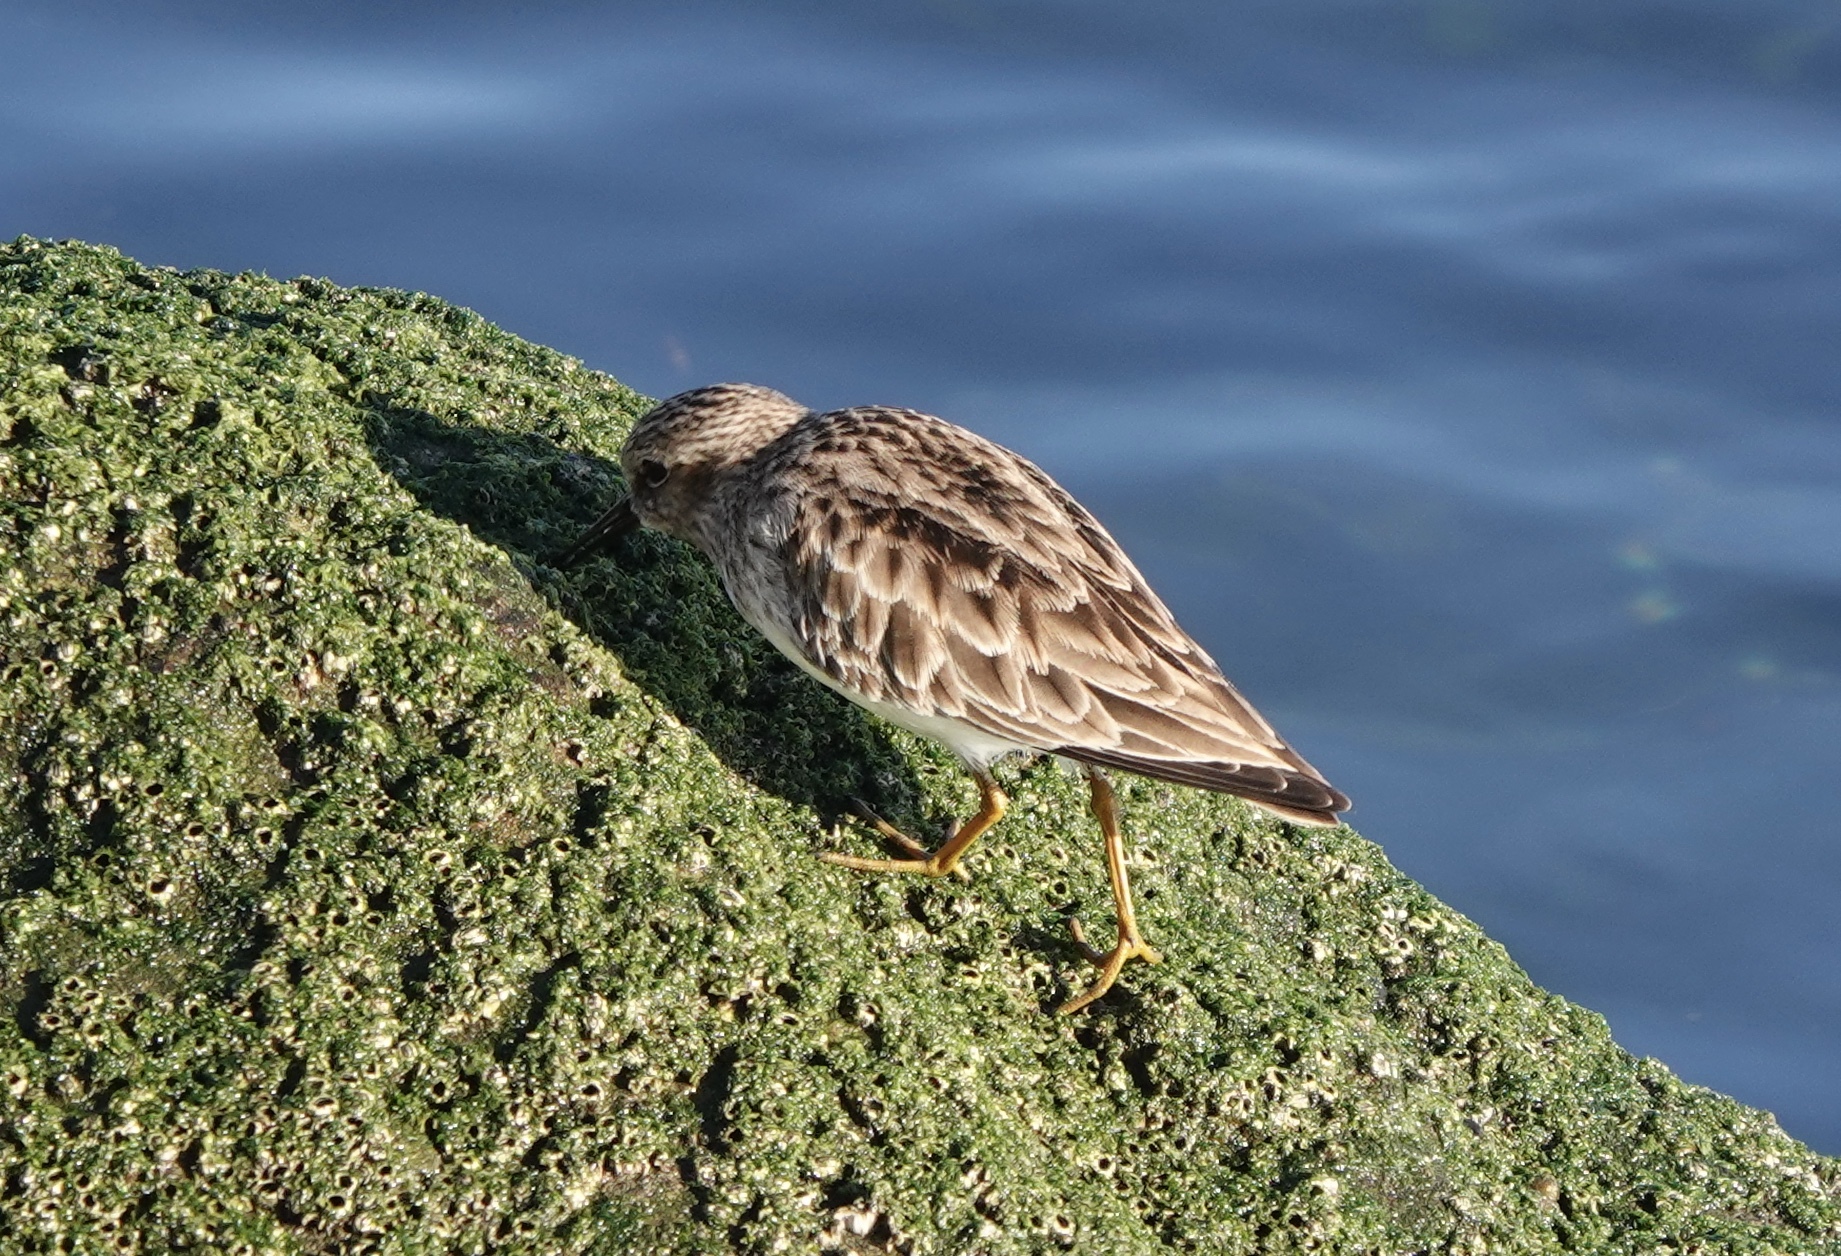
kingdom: Animalia
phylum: Chordata
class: Aves
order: Charadriiformes
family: Scolopacidae
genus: Calidris
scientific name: Calidris minutilla
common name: Least sandpiper
